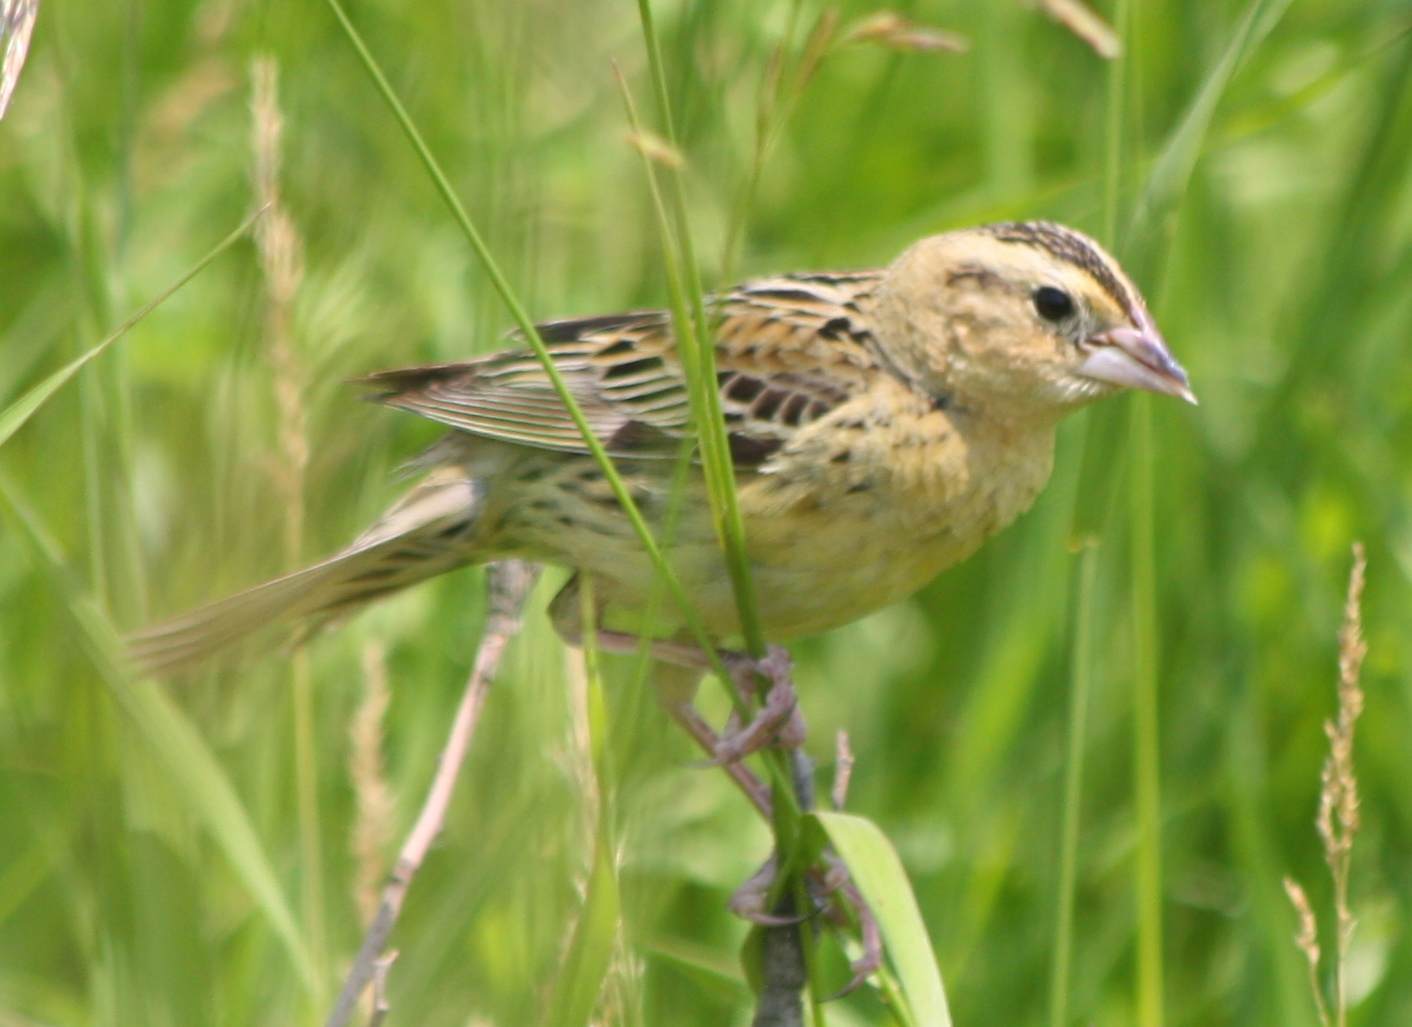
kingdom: Animalia
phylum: Chordata
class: Aves
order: Passeriformes
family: Icteridae
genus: Dolichonyx
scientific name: Dolichonyx oryzivorus
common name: Bobolink
